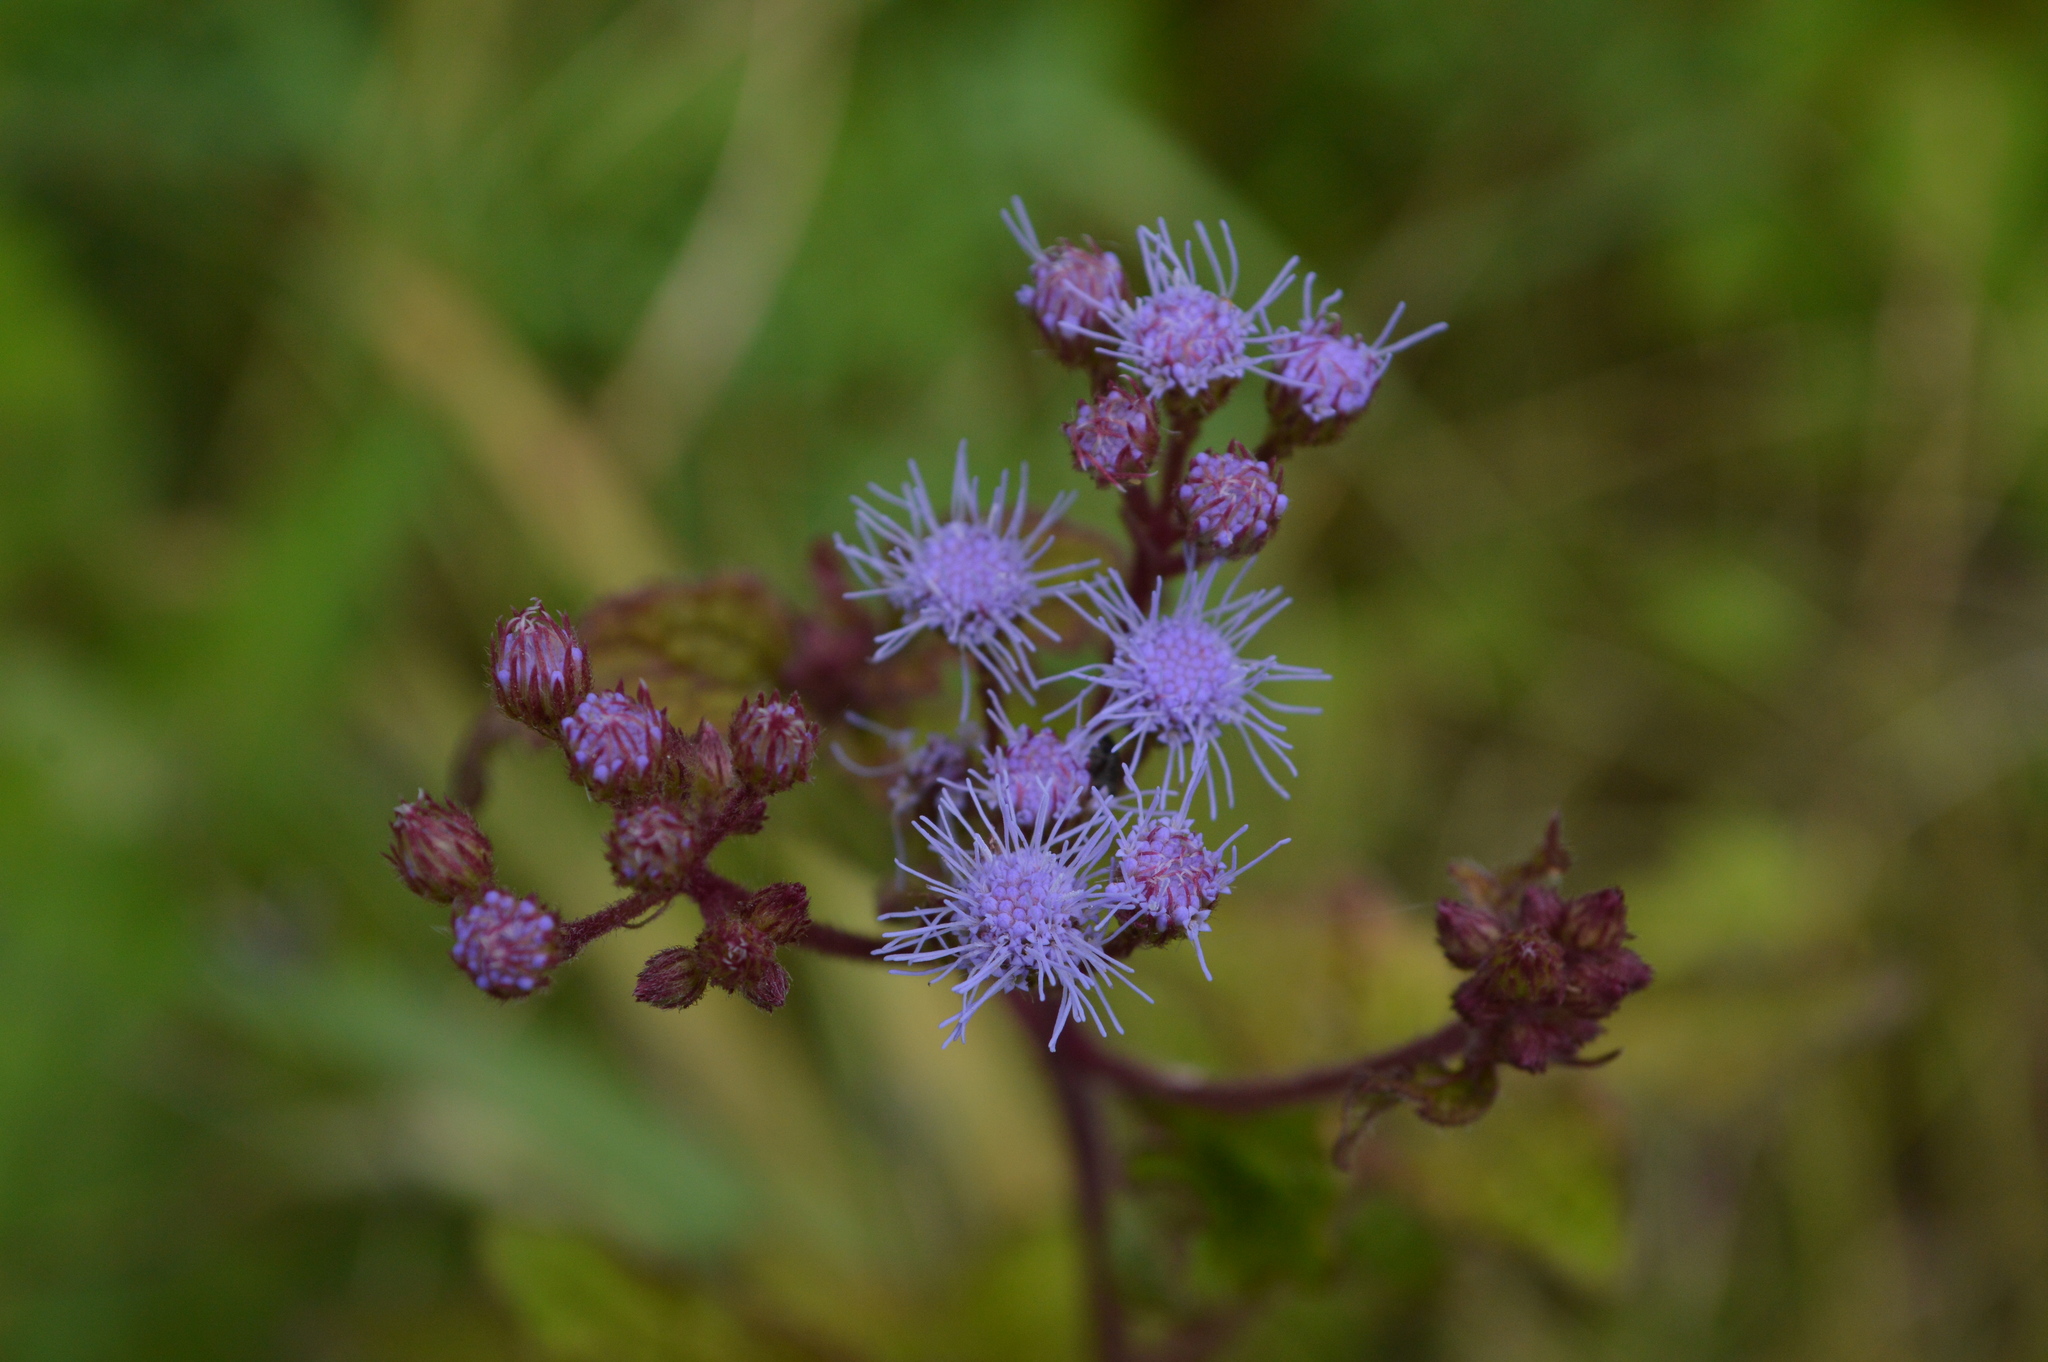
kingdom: Plantae
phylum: Tracheophyta
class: Magnoliopsida
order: Asterales
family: Asteraceae
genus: Conoclinium
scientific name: Conoclinium coelestinum
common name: Blue mistflower
